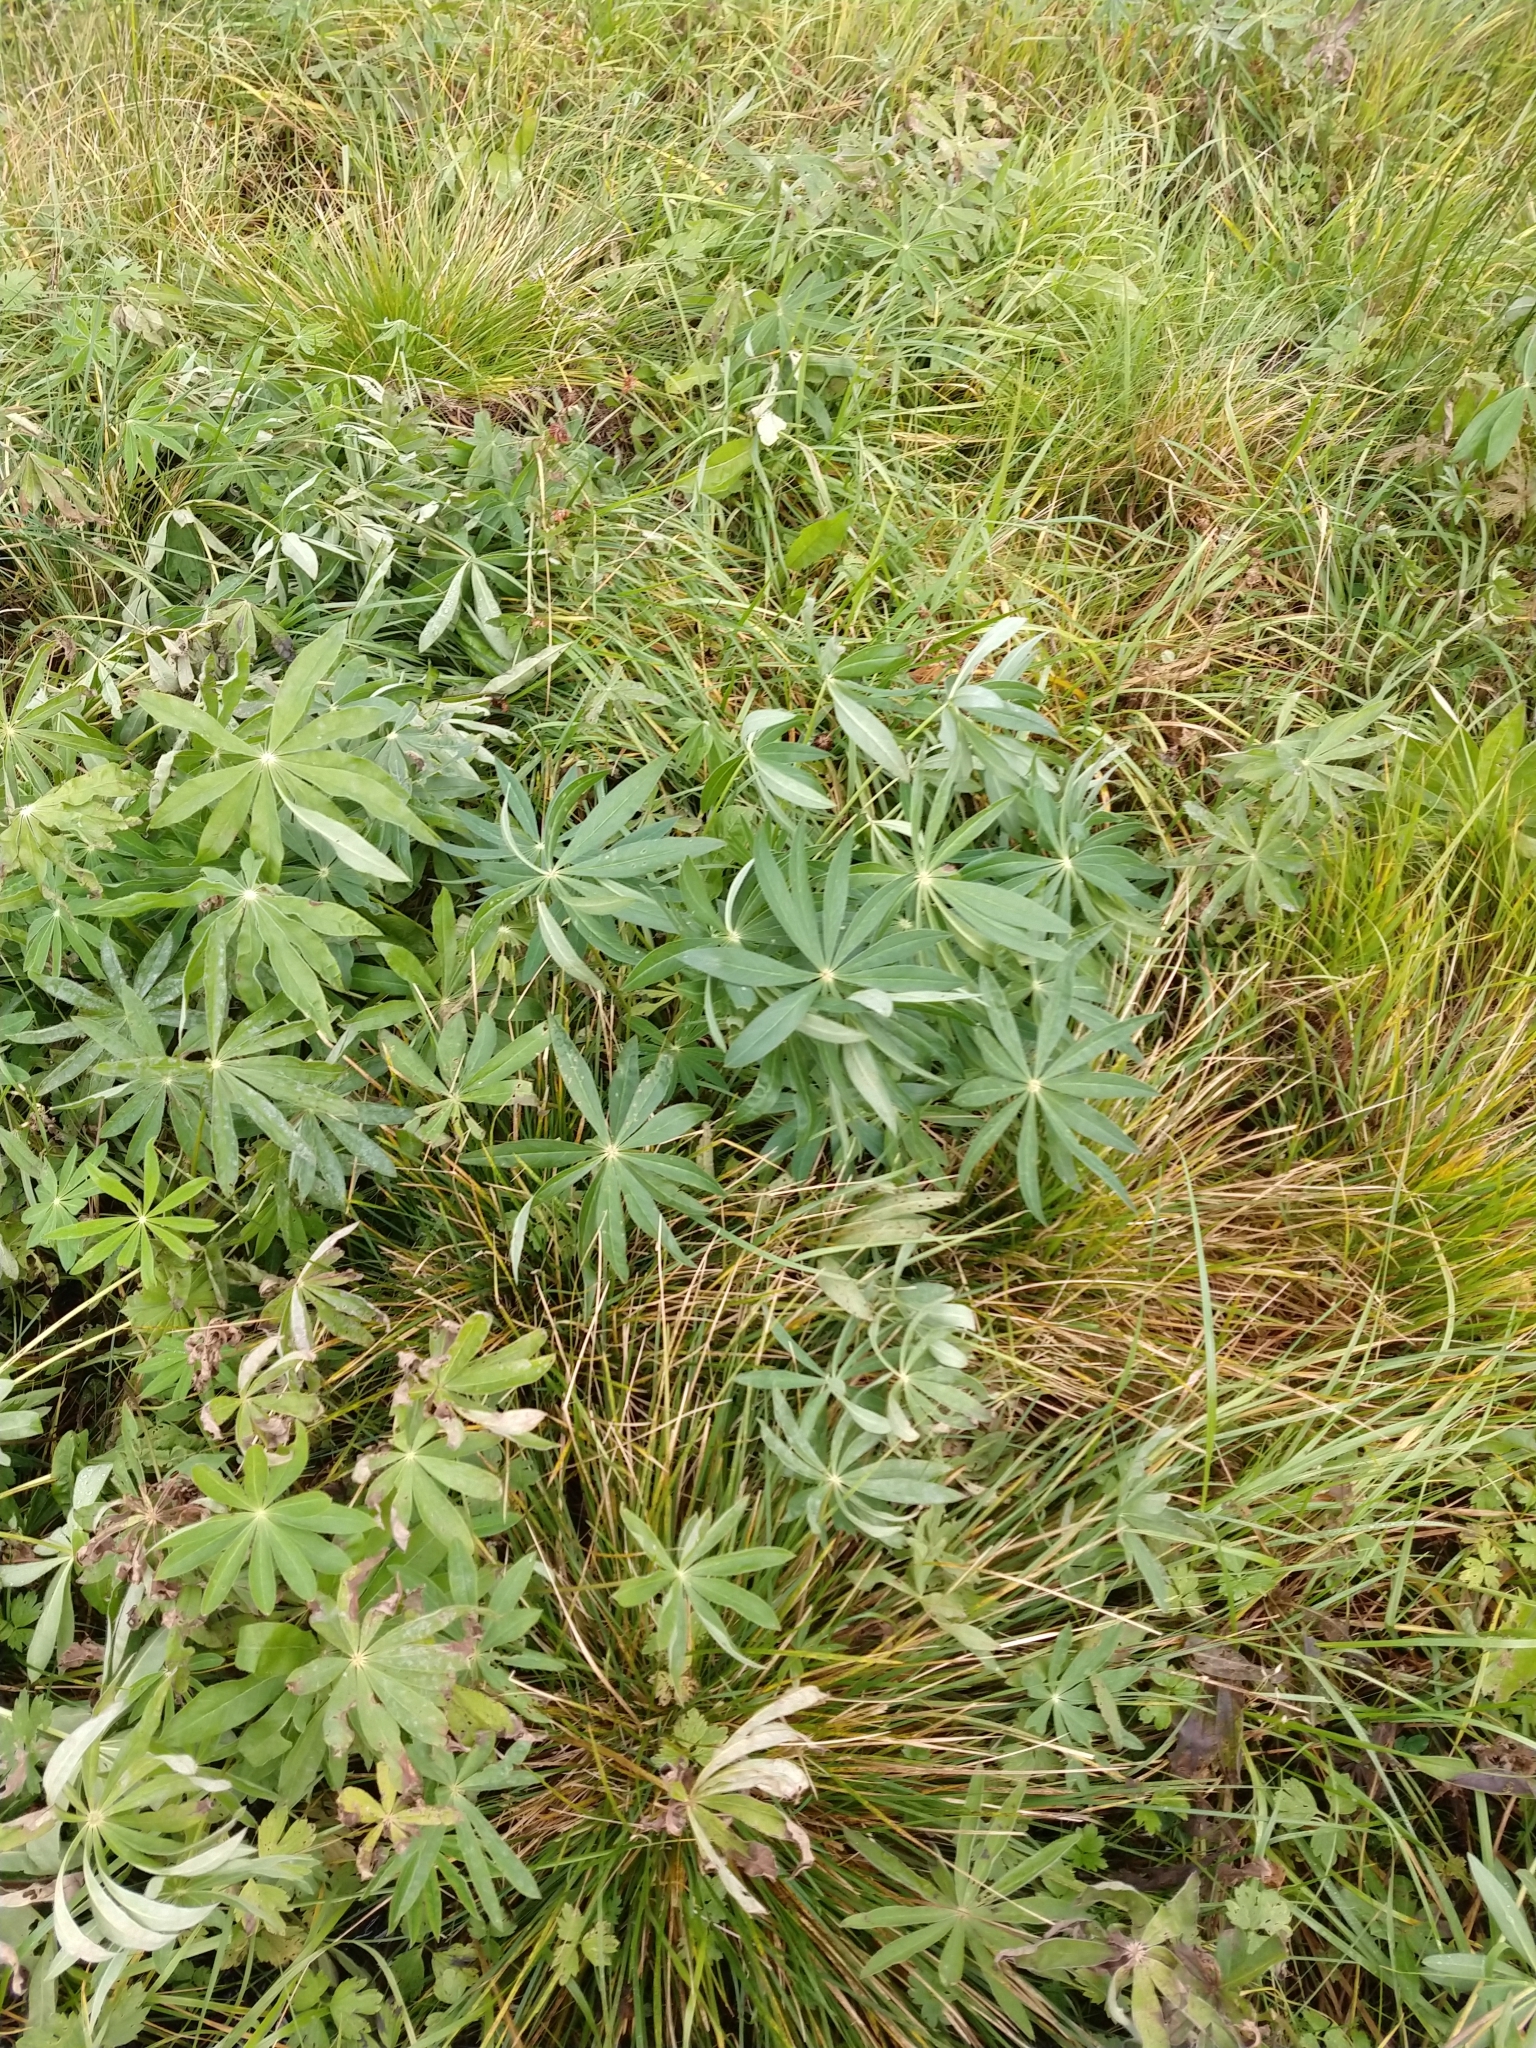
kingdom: Plantae
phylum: Tracheophyta
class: Magnoliopsida
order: Fabales
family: Fabaceae
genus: Lupinus
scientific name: Lupinus polyphyllus
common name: Garden lupin
